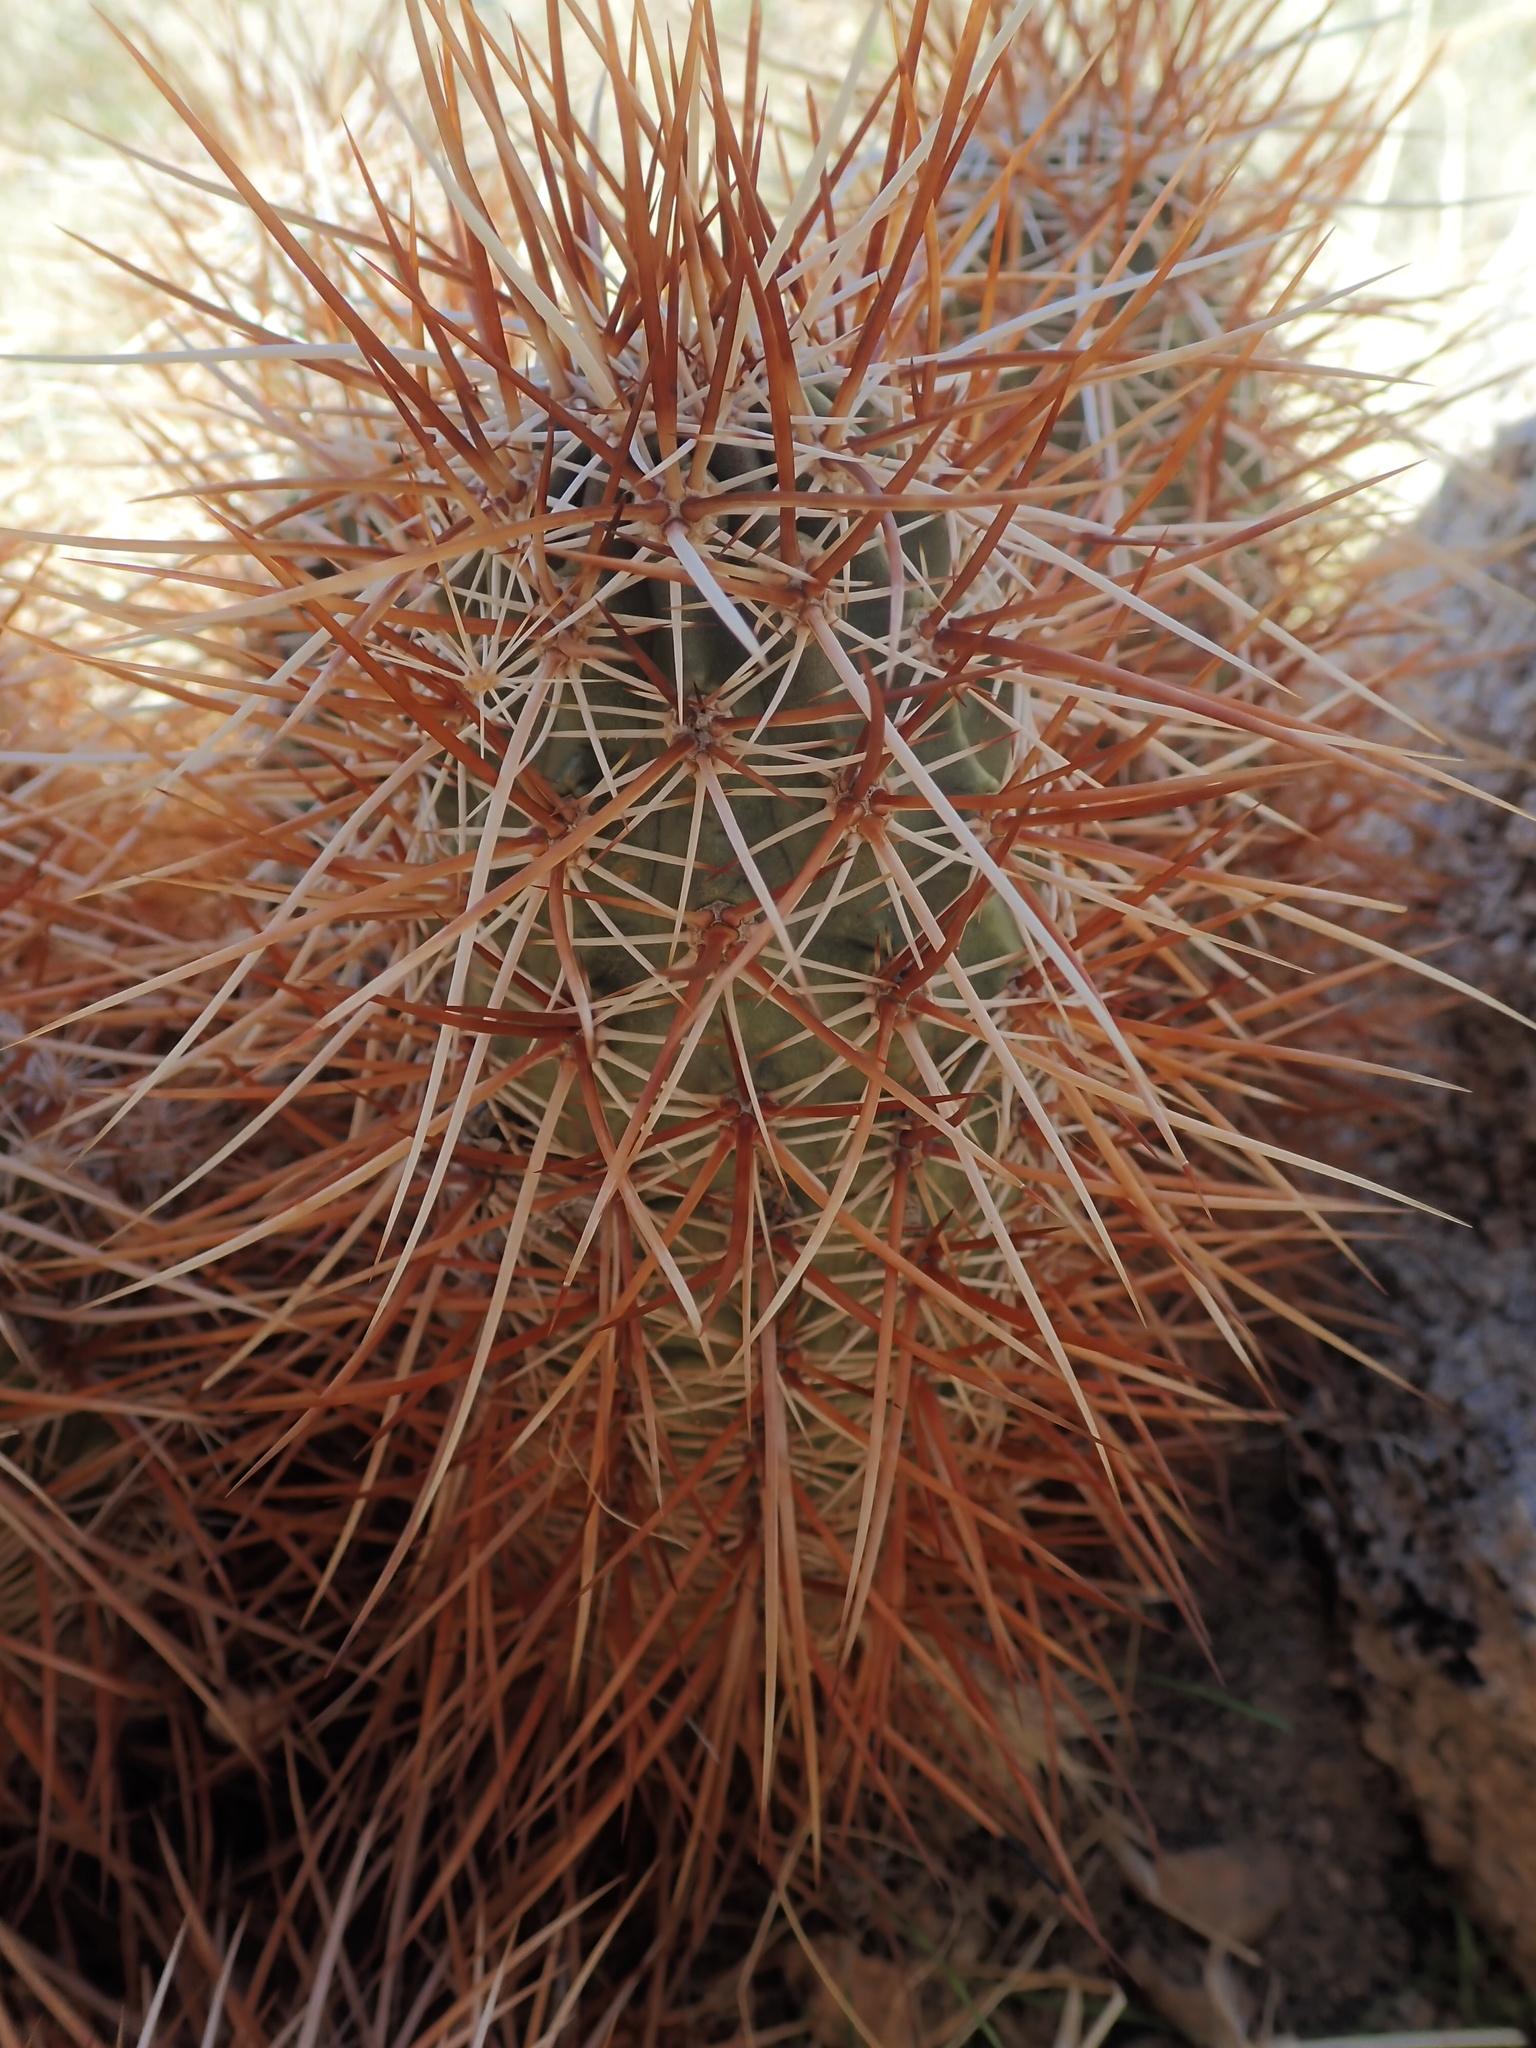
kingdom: Plantae
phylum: Tracheophyta
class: Magnoliopsida
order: Caryophyllales
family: Cactaceae
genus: Echinocereus
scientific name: Echinocereus engelmannii
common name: Engelmann's hedgehog cactus
